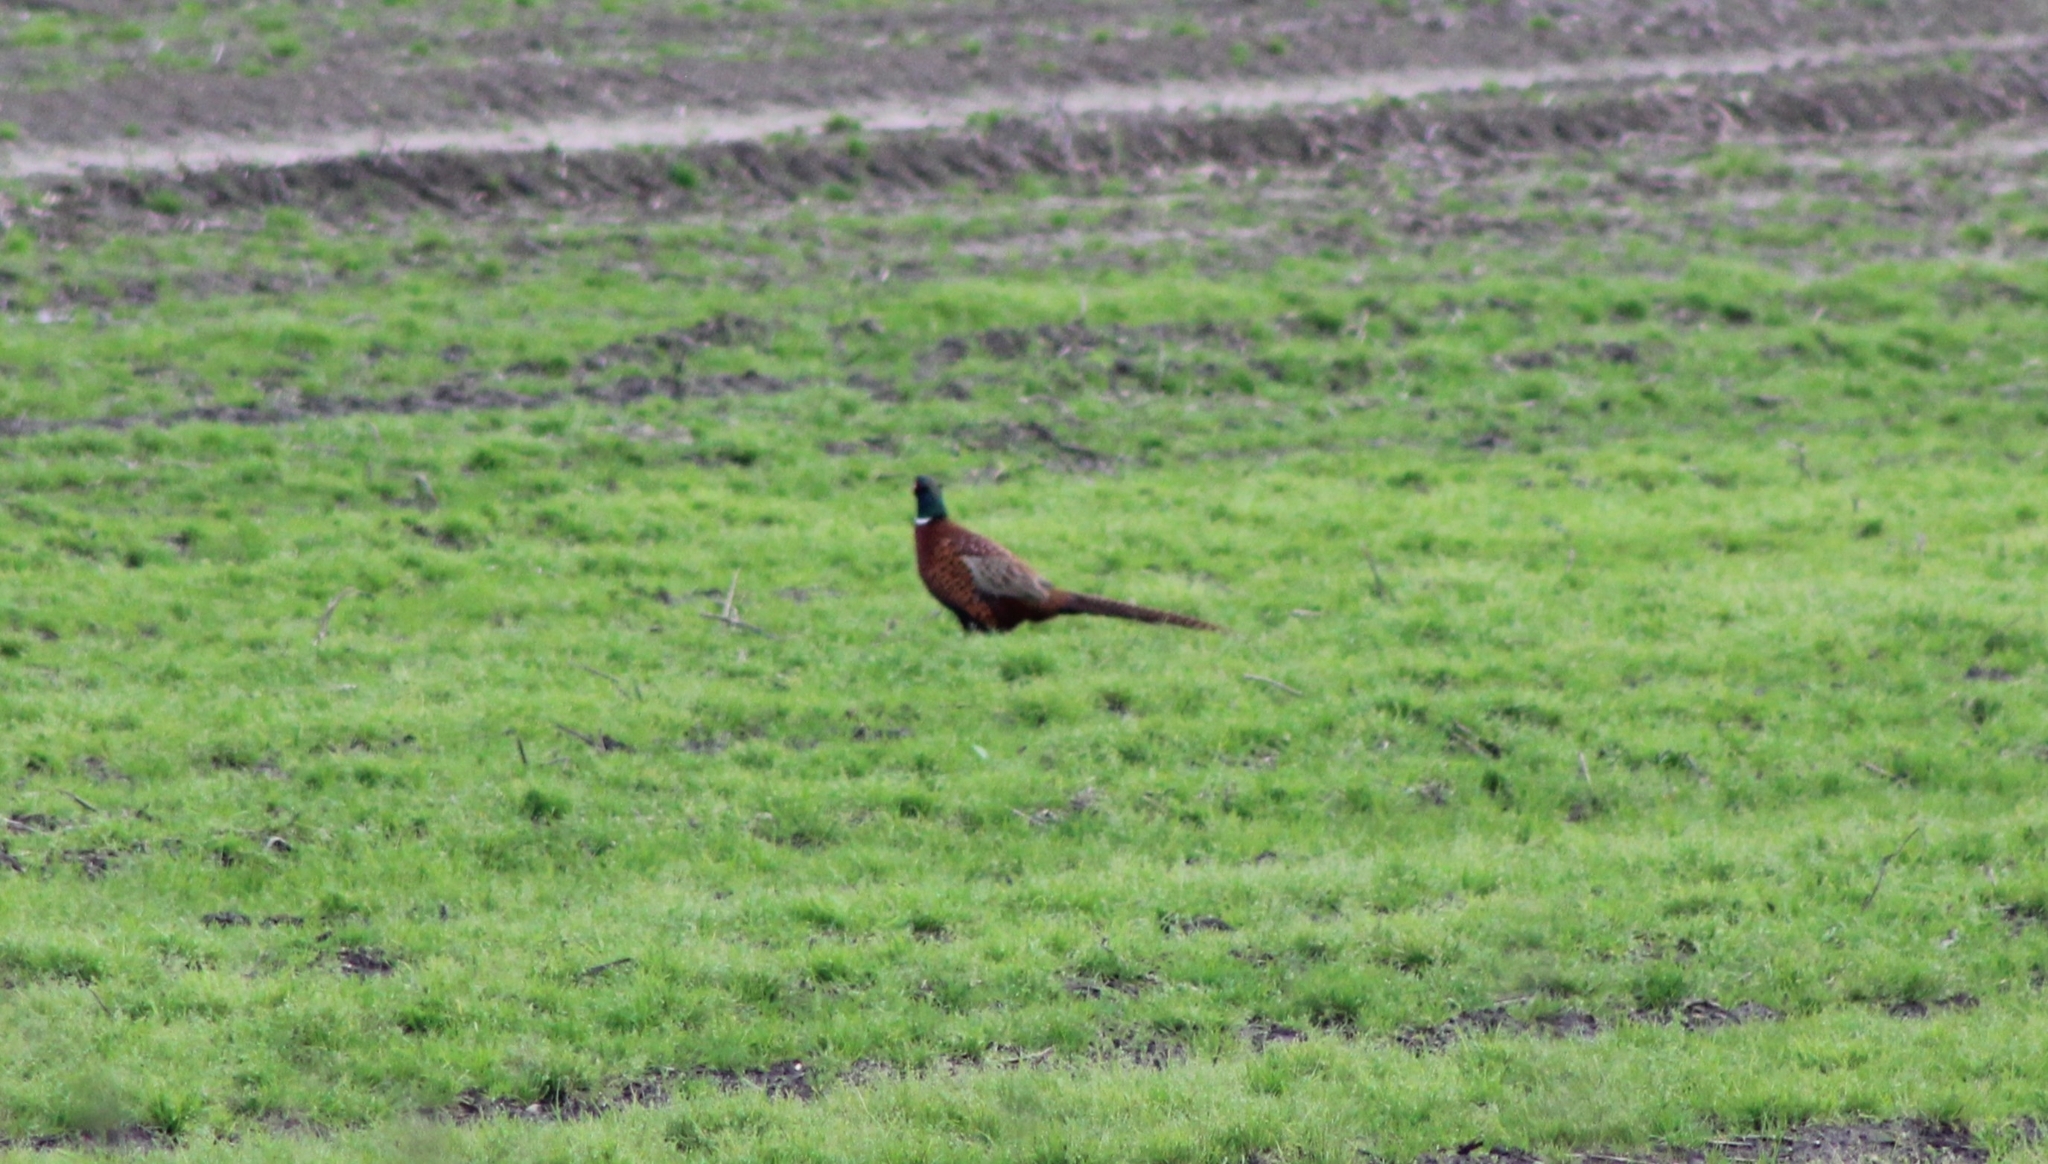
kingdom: Animalia
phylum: Chordata
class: Aves
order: Galliformes
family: Phasianidae
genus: Phasianus
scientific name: Phasianus colchicus
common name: Common pheasant
